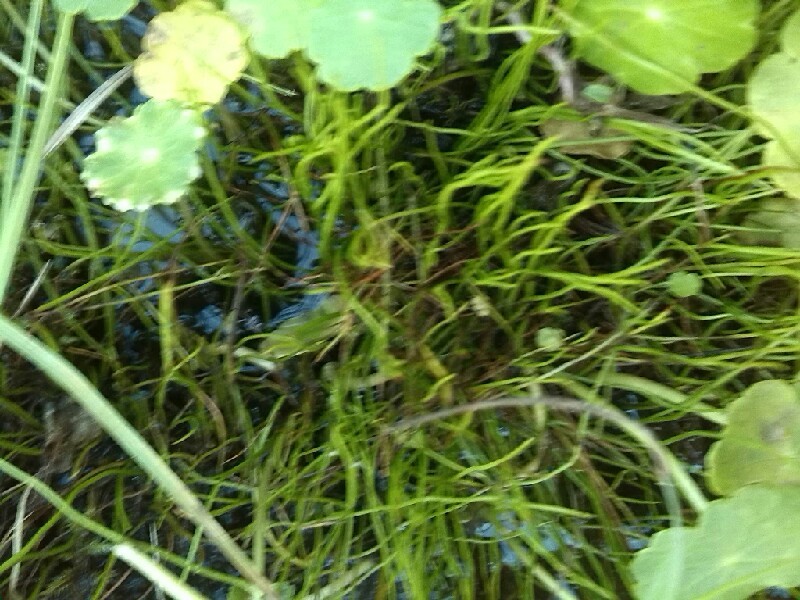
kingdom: Plantae
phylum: Tracheophyta
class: Polypodiopsida
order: Salviniales
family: Marsileaceae
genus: Pilularia
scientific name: Pilularia globulifera
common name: Pillwort
